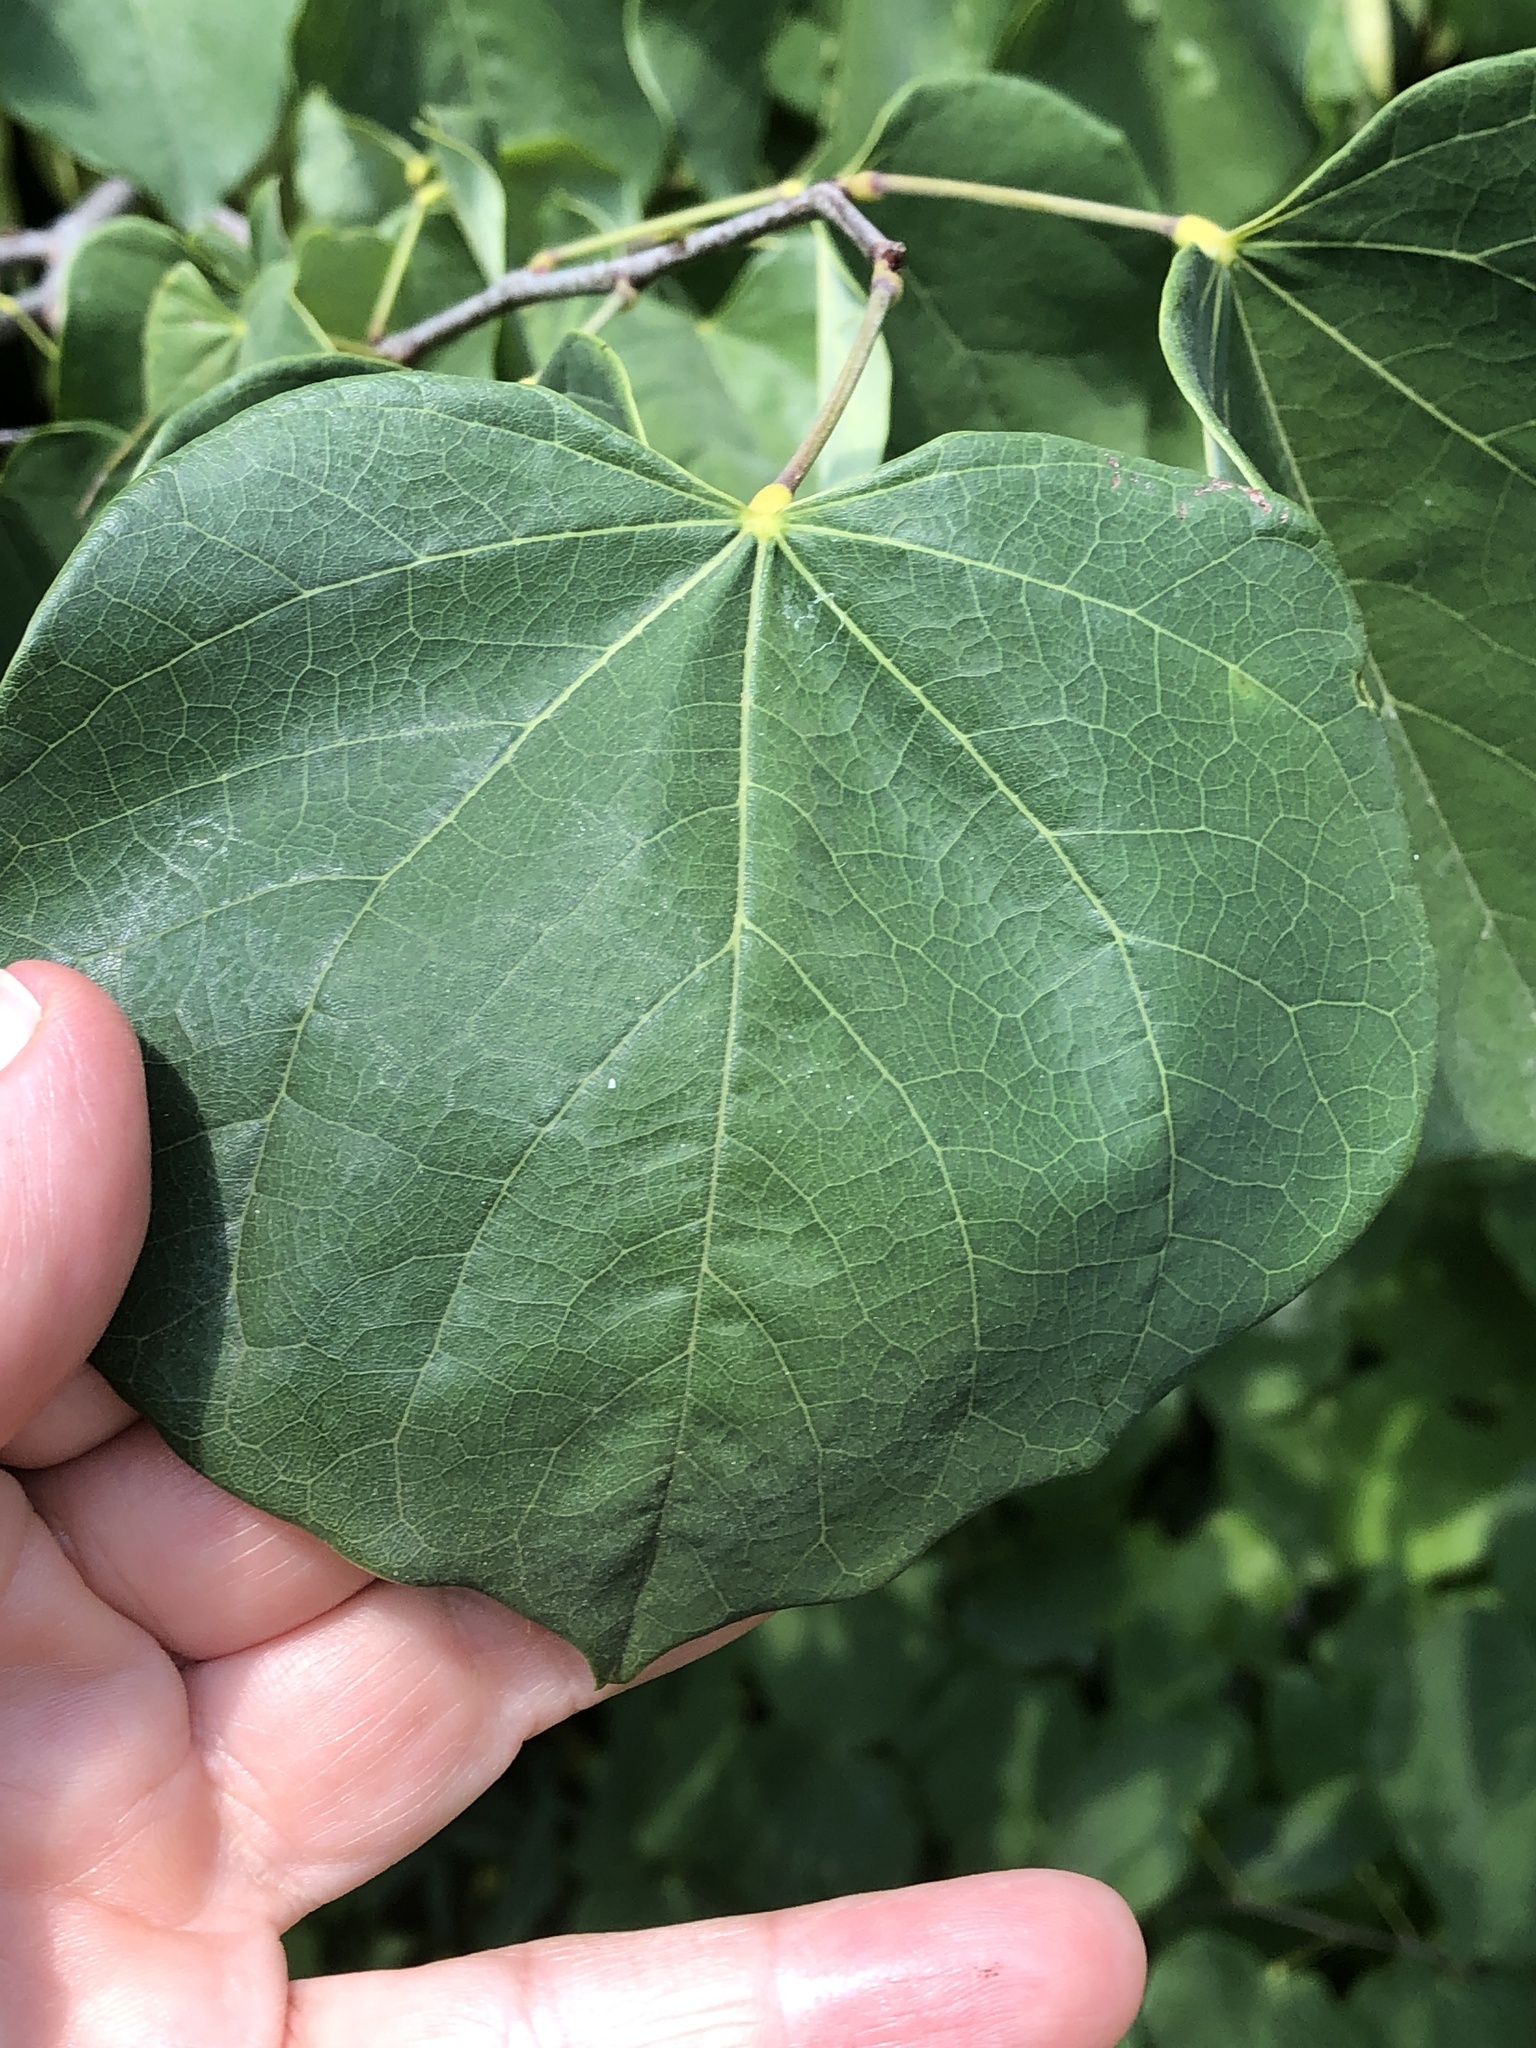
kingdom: Plantae
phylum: Tracheophyta
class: Magnoliopsida
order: Fabales
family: Fabaceae
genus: Cercis
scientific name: Cercis canadensis
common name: Eastern redbud
